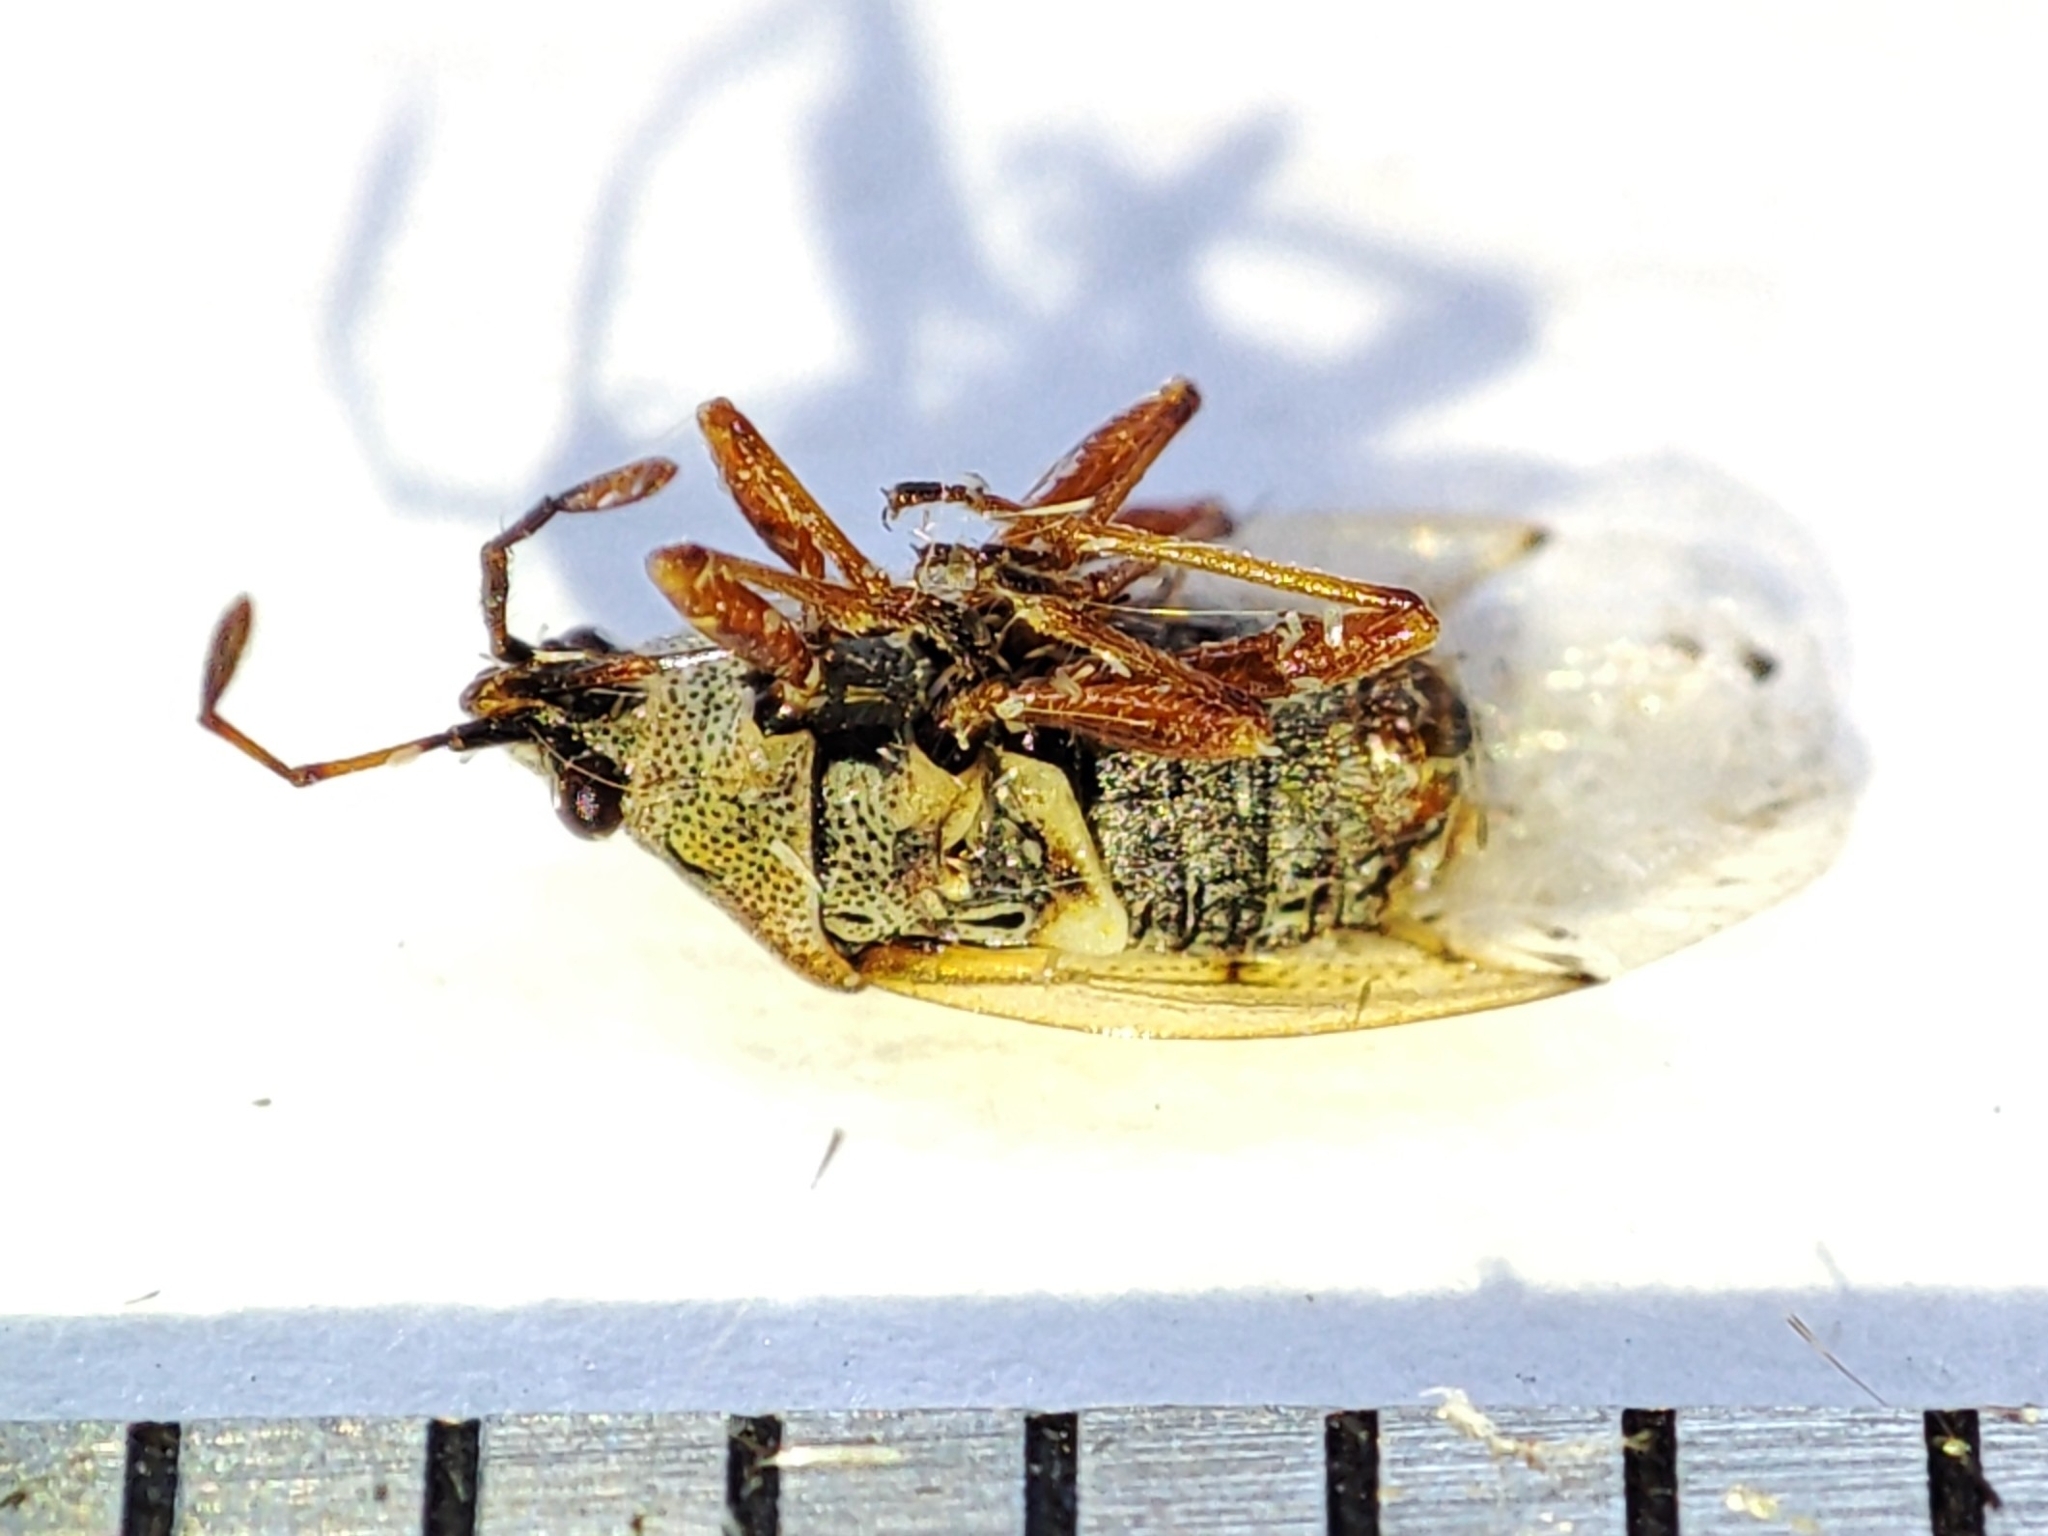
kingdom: Animalia
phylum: Arthropoda
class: Insecta
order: Hemiptera
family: Lygaeidae
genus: Kleidocerys
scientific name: Kleidocerys resedae
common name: Birch catkin bug
